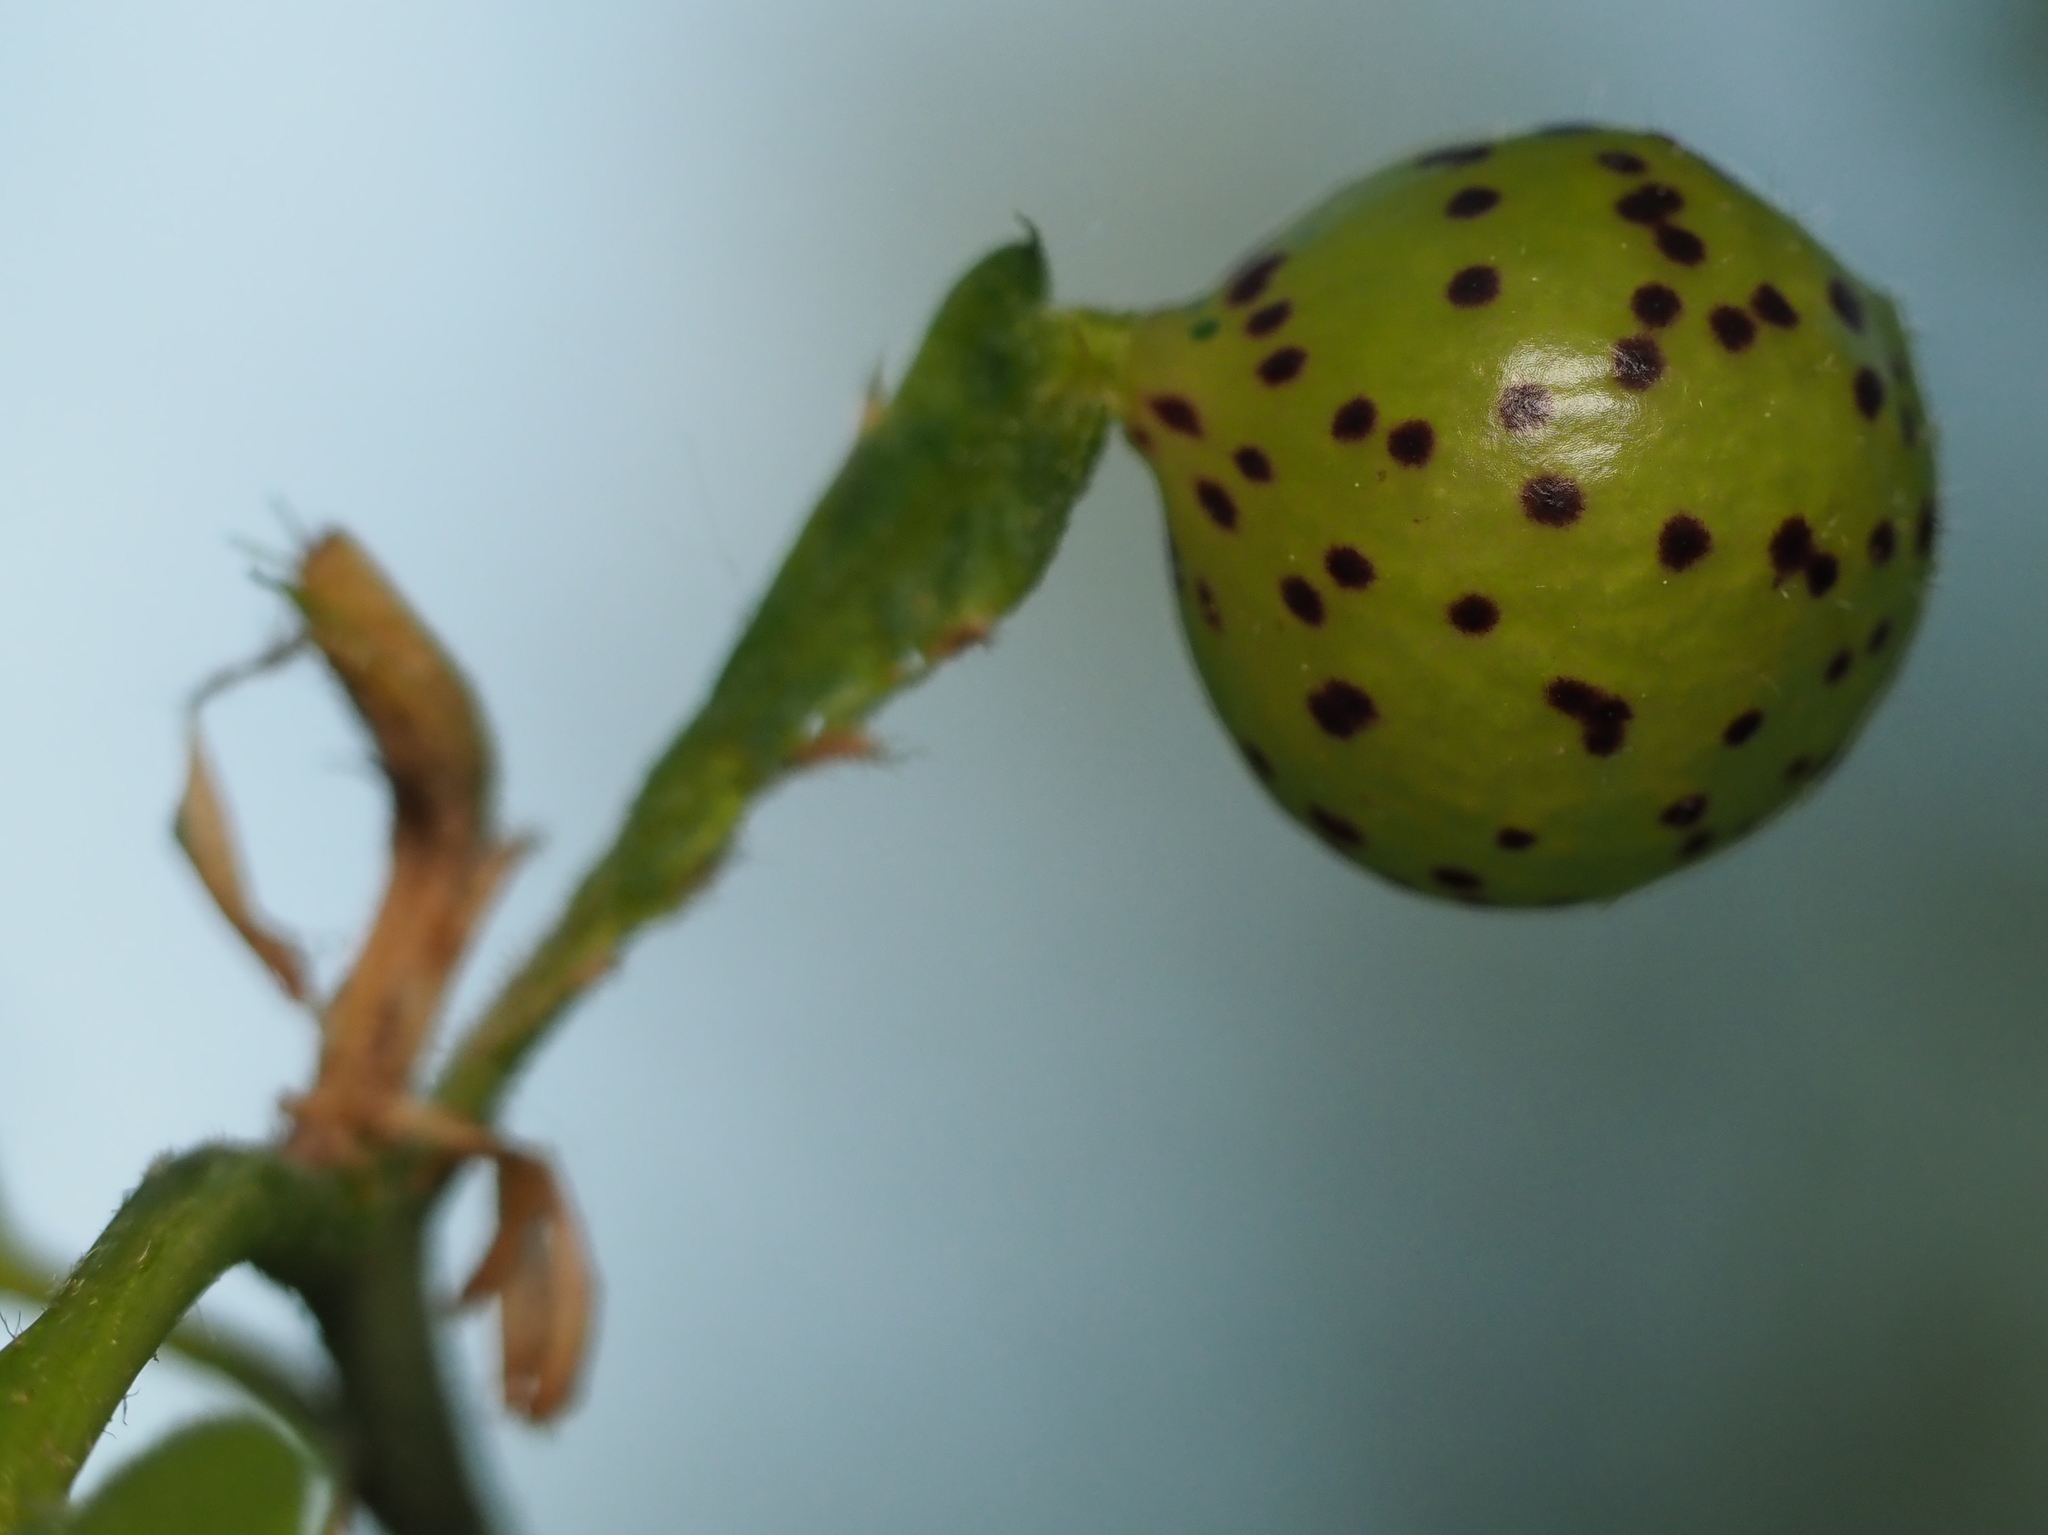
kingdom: Animalia
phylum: Arthropoda
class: Insecta
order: Hymenoptera
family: Cynipidae
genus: Amphibolips
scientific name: Amphibolips
